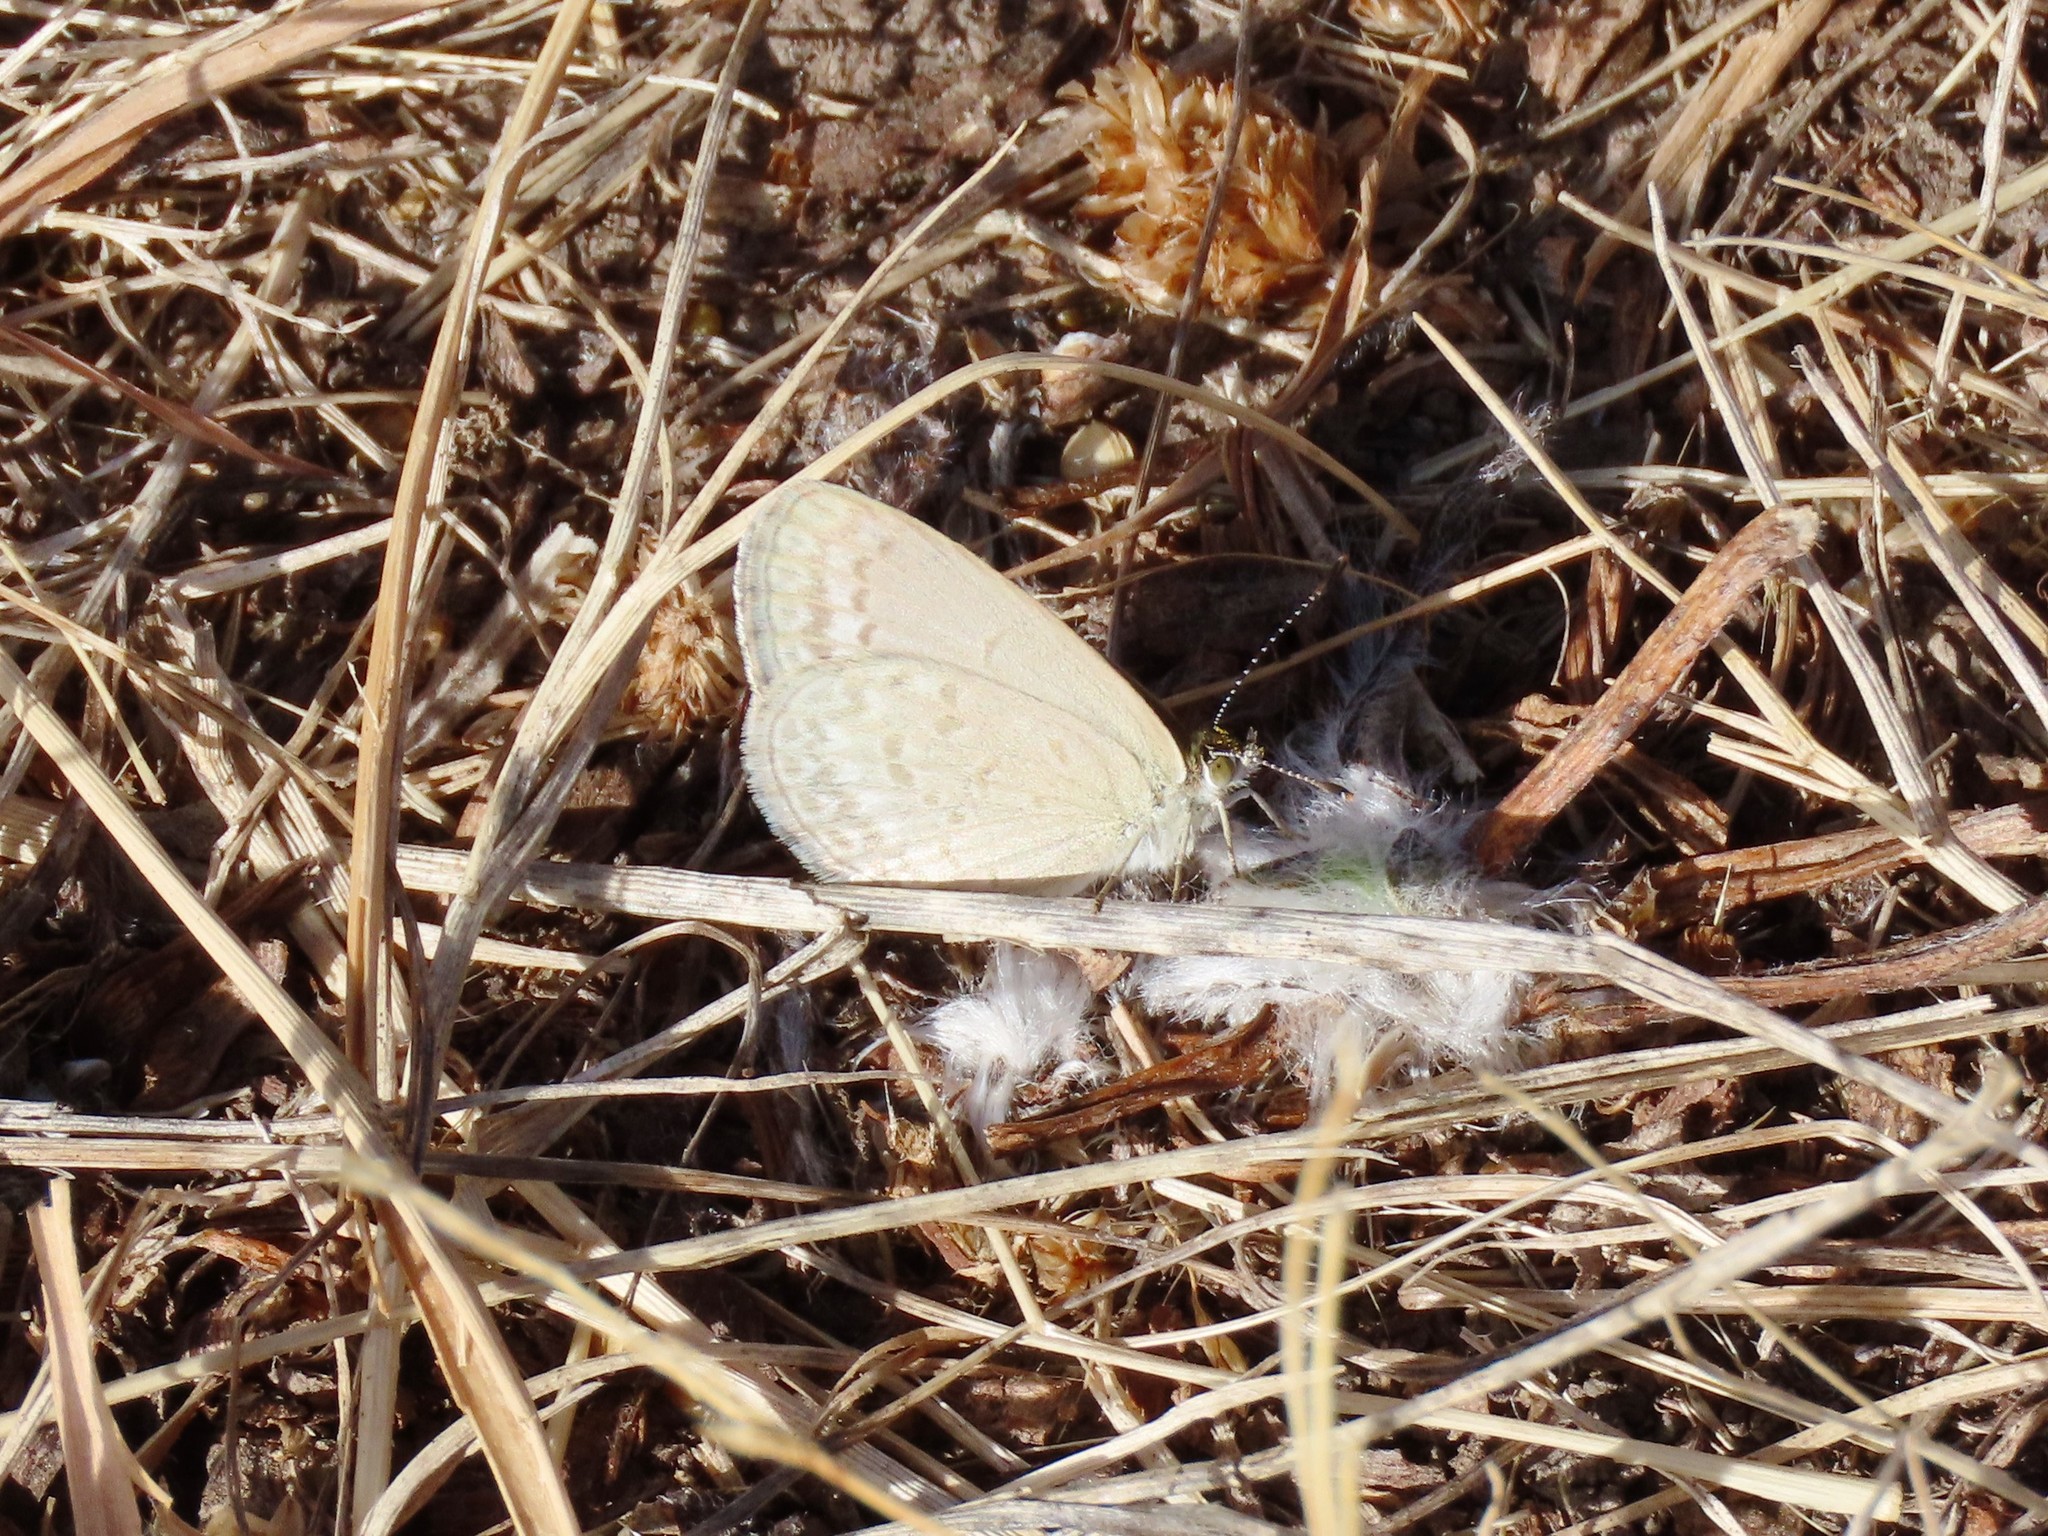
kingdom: Animalia
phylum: Arthropoda
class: Insecta
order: Lepidoptera
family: Lycaenidae
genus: Zizina
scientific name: Zizina otis
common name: Lesser grass blue
